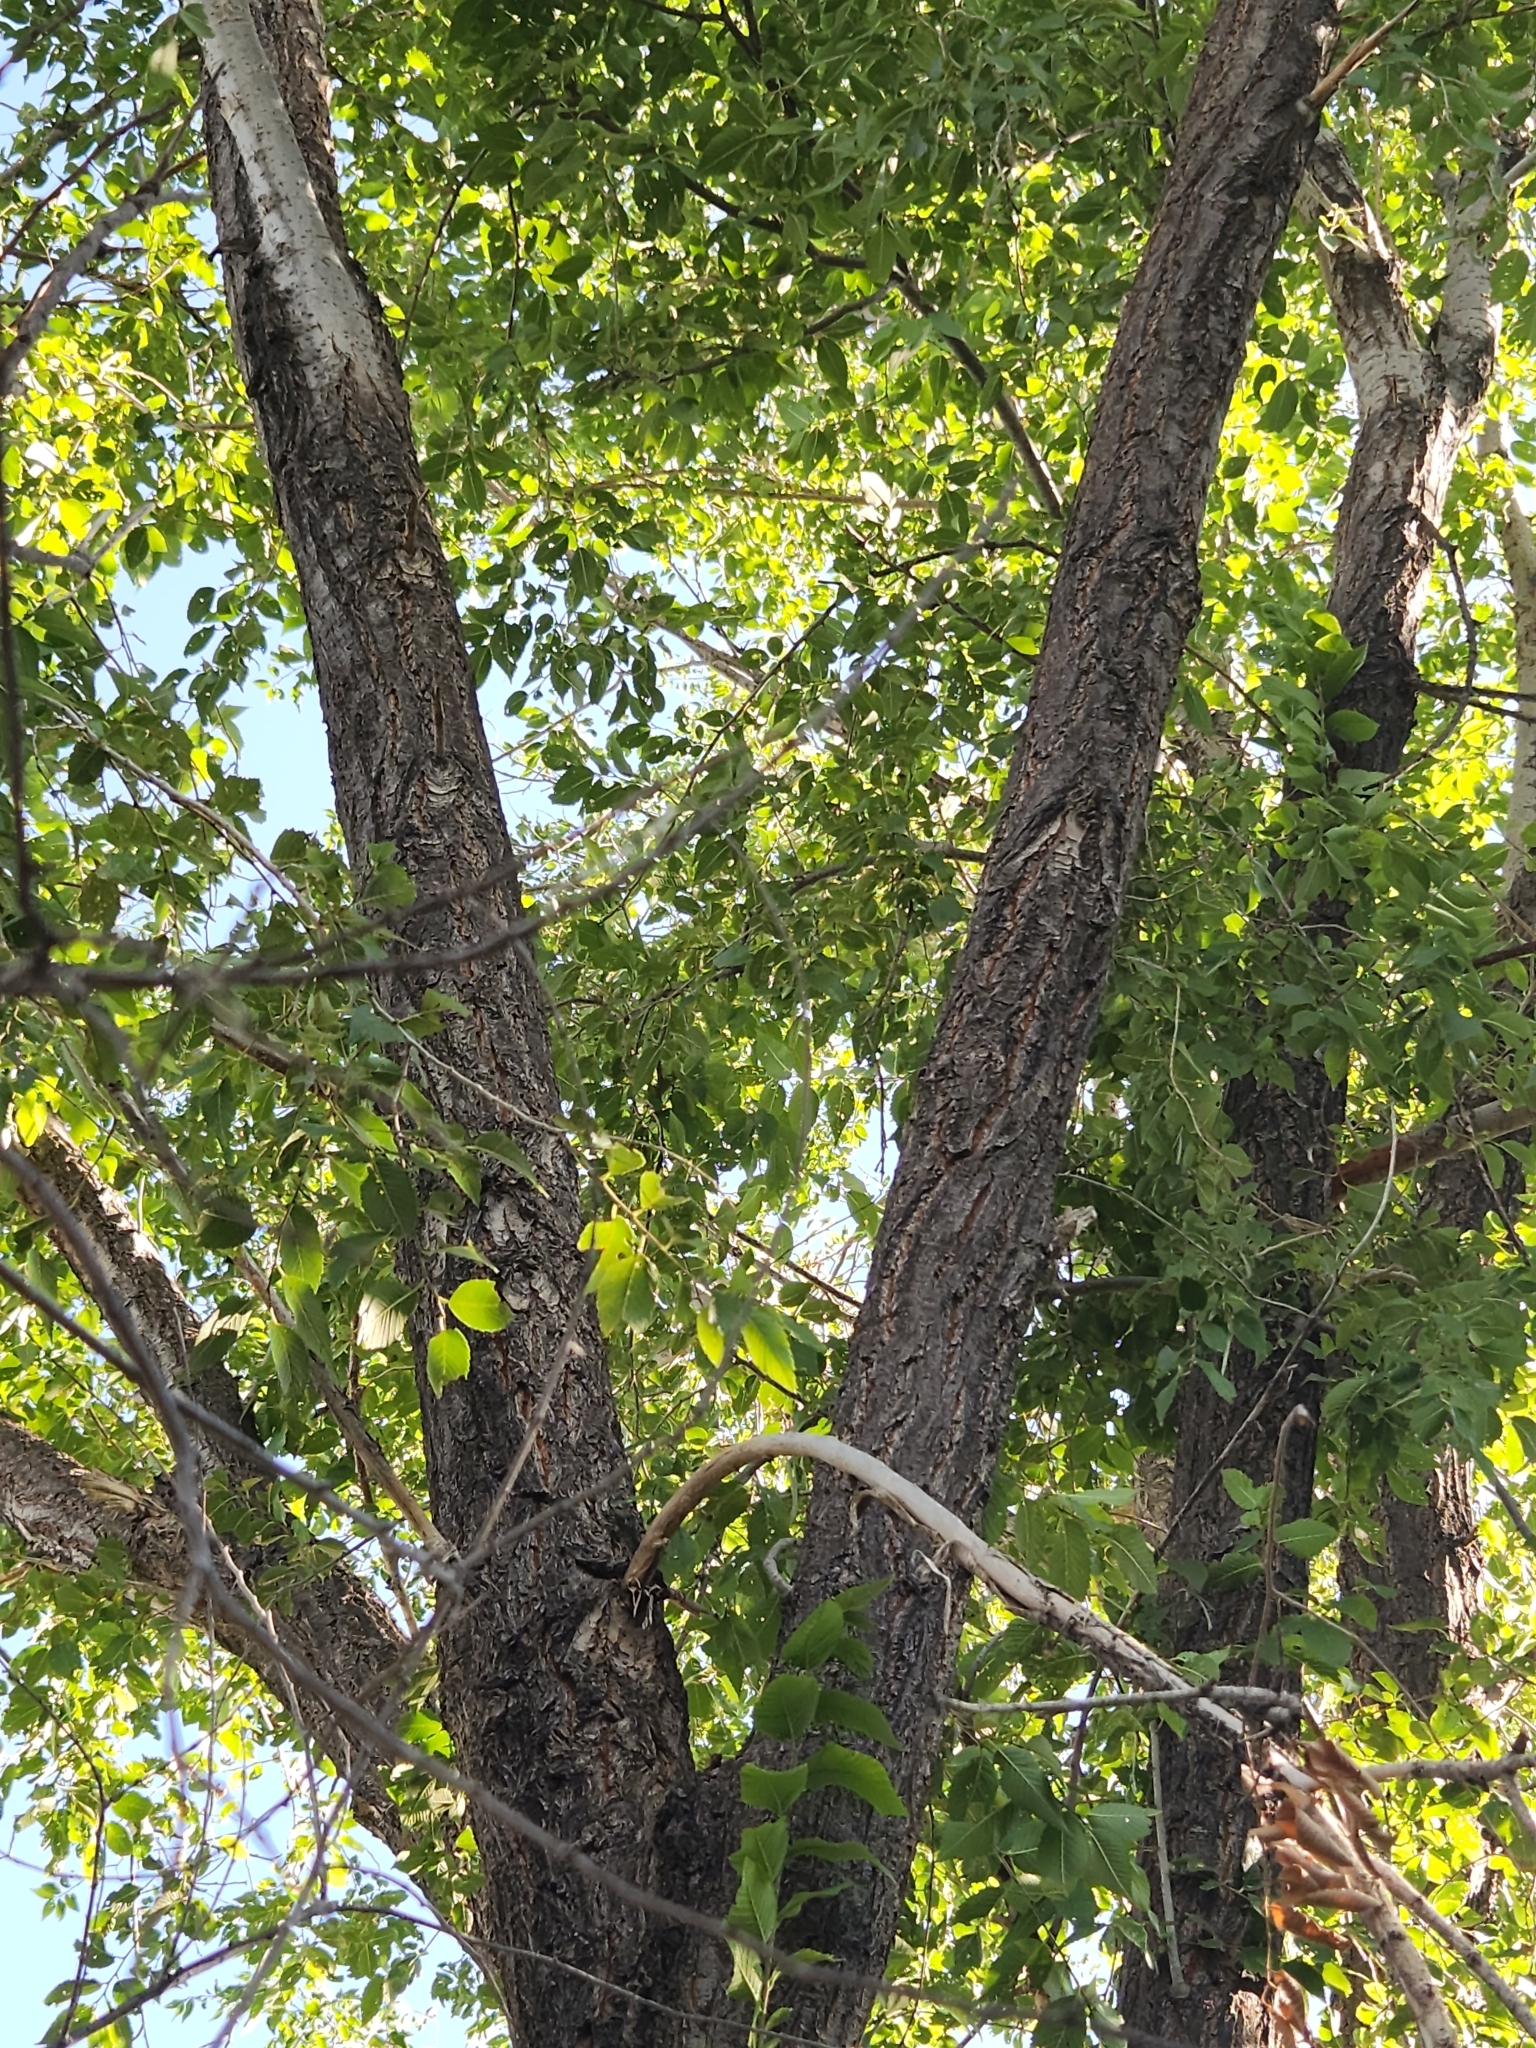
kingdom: Plantae
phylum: Tracheophyta
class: Magnoliopsida
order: Rosales
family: Ulmaceae
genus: Ulmus
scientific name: Ulmus pumila
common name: Siberian elm
